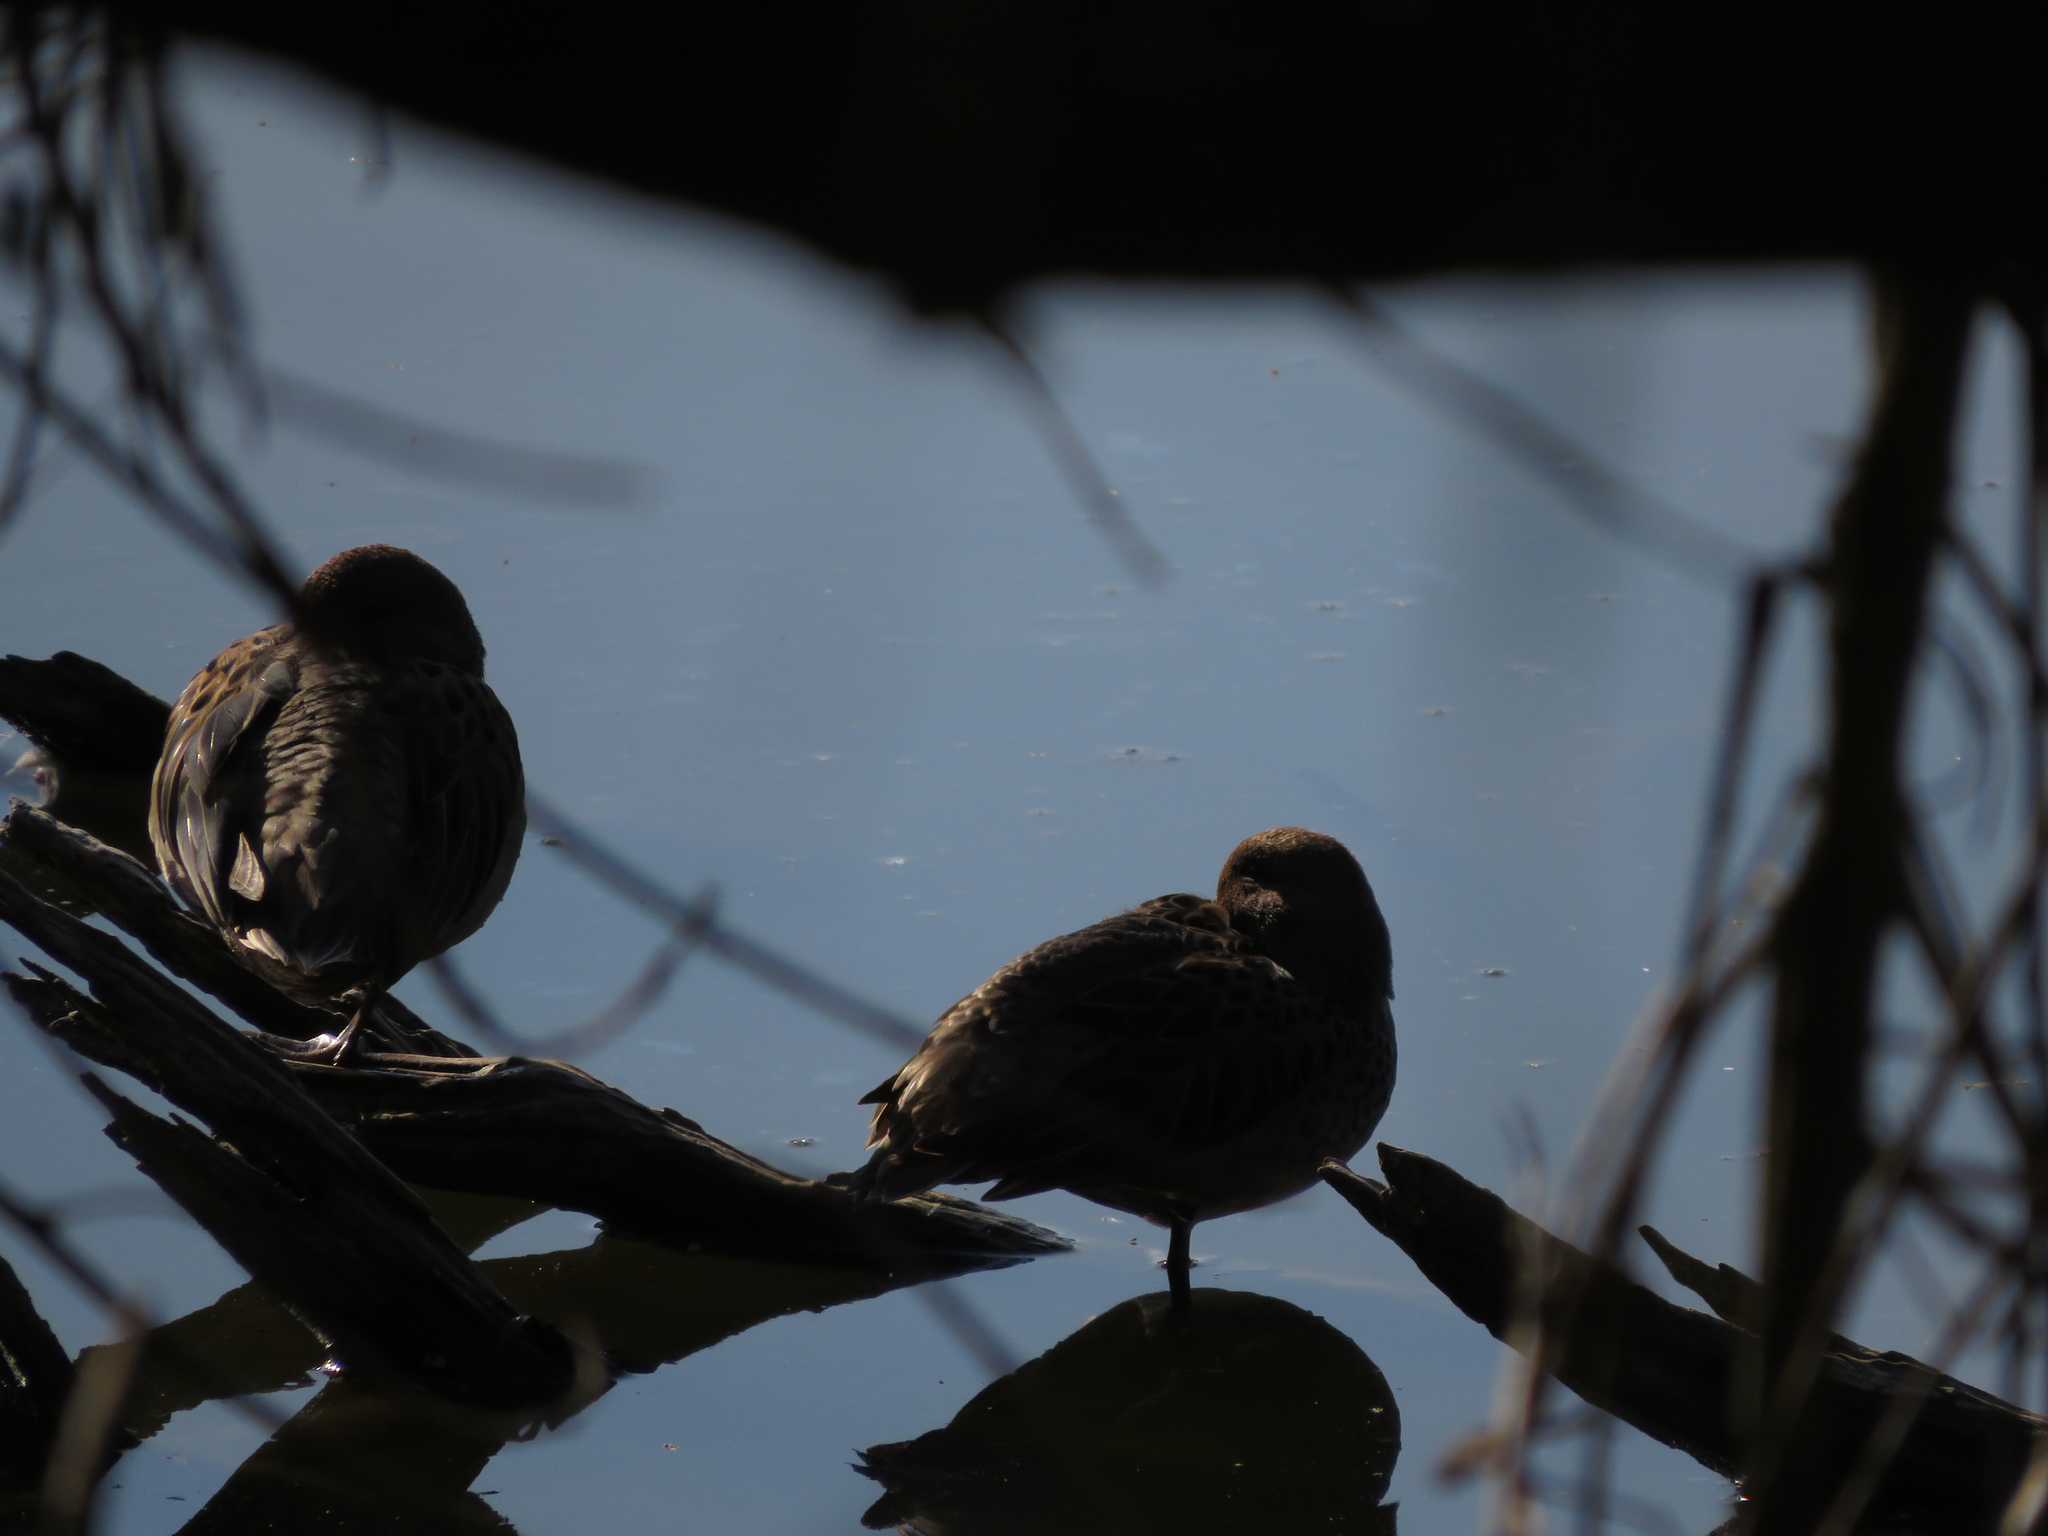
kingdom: Animalia
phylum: Chordata
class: Aves
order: Anseriformes
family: Anatidae
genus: Anas
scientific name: Anas flavirostris
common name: Yellow-billed teal
